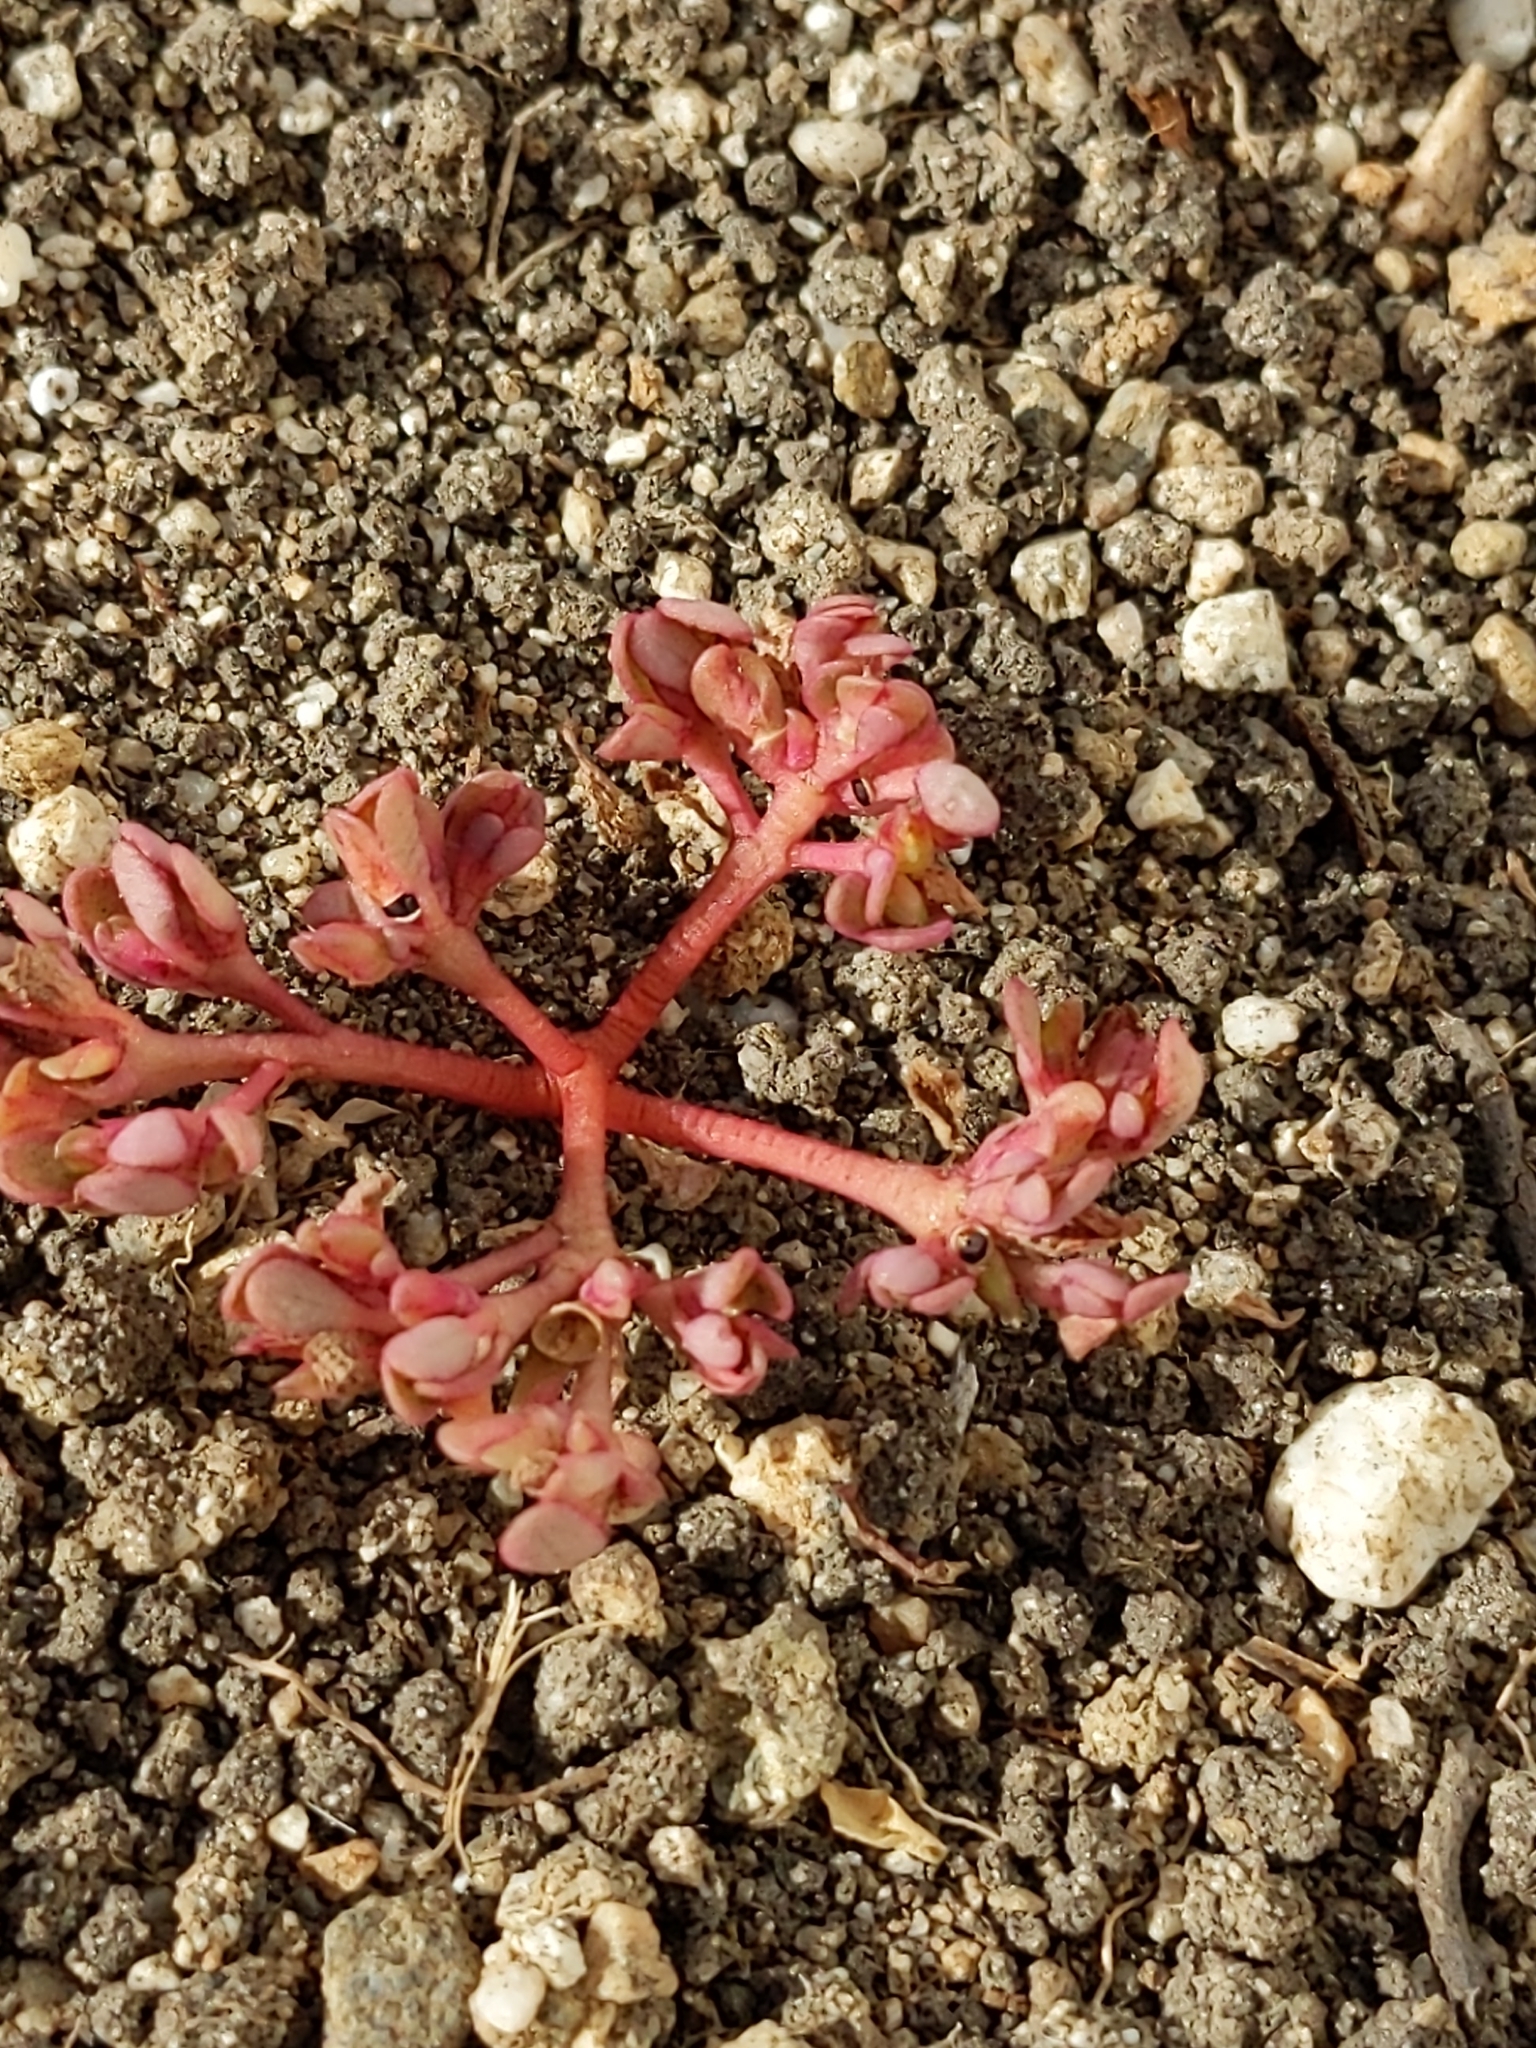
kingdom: Plantae
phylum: Tracheophyta
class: Magnoliopsida
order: Caryophyllales
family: Portulacaceae
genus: Portulaca
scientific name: Portulaca oleracea
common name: Common purslane
